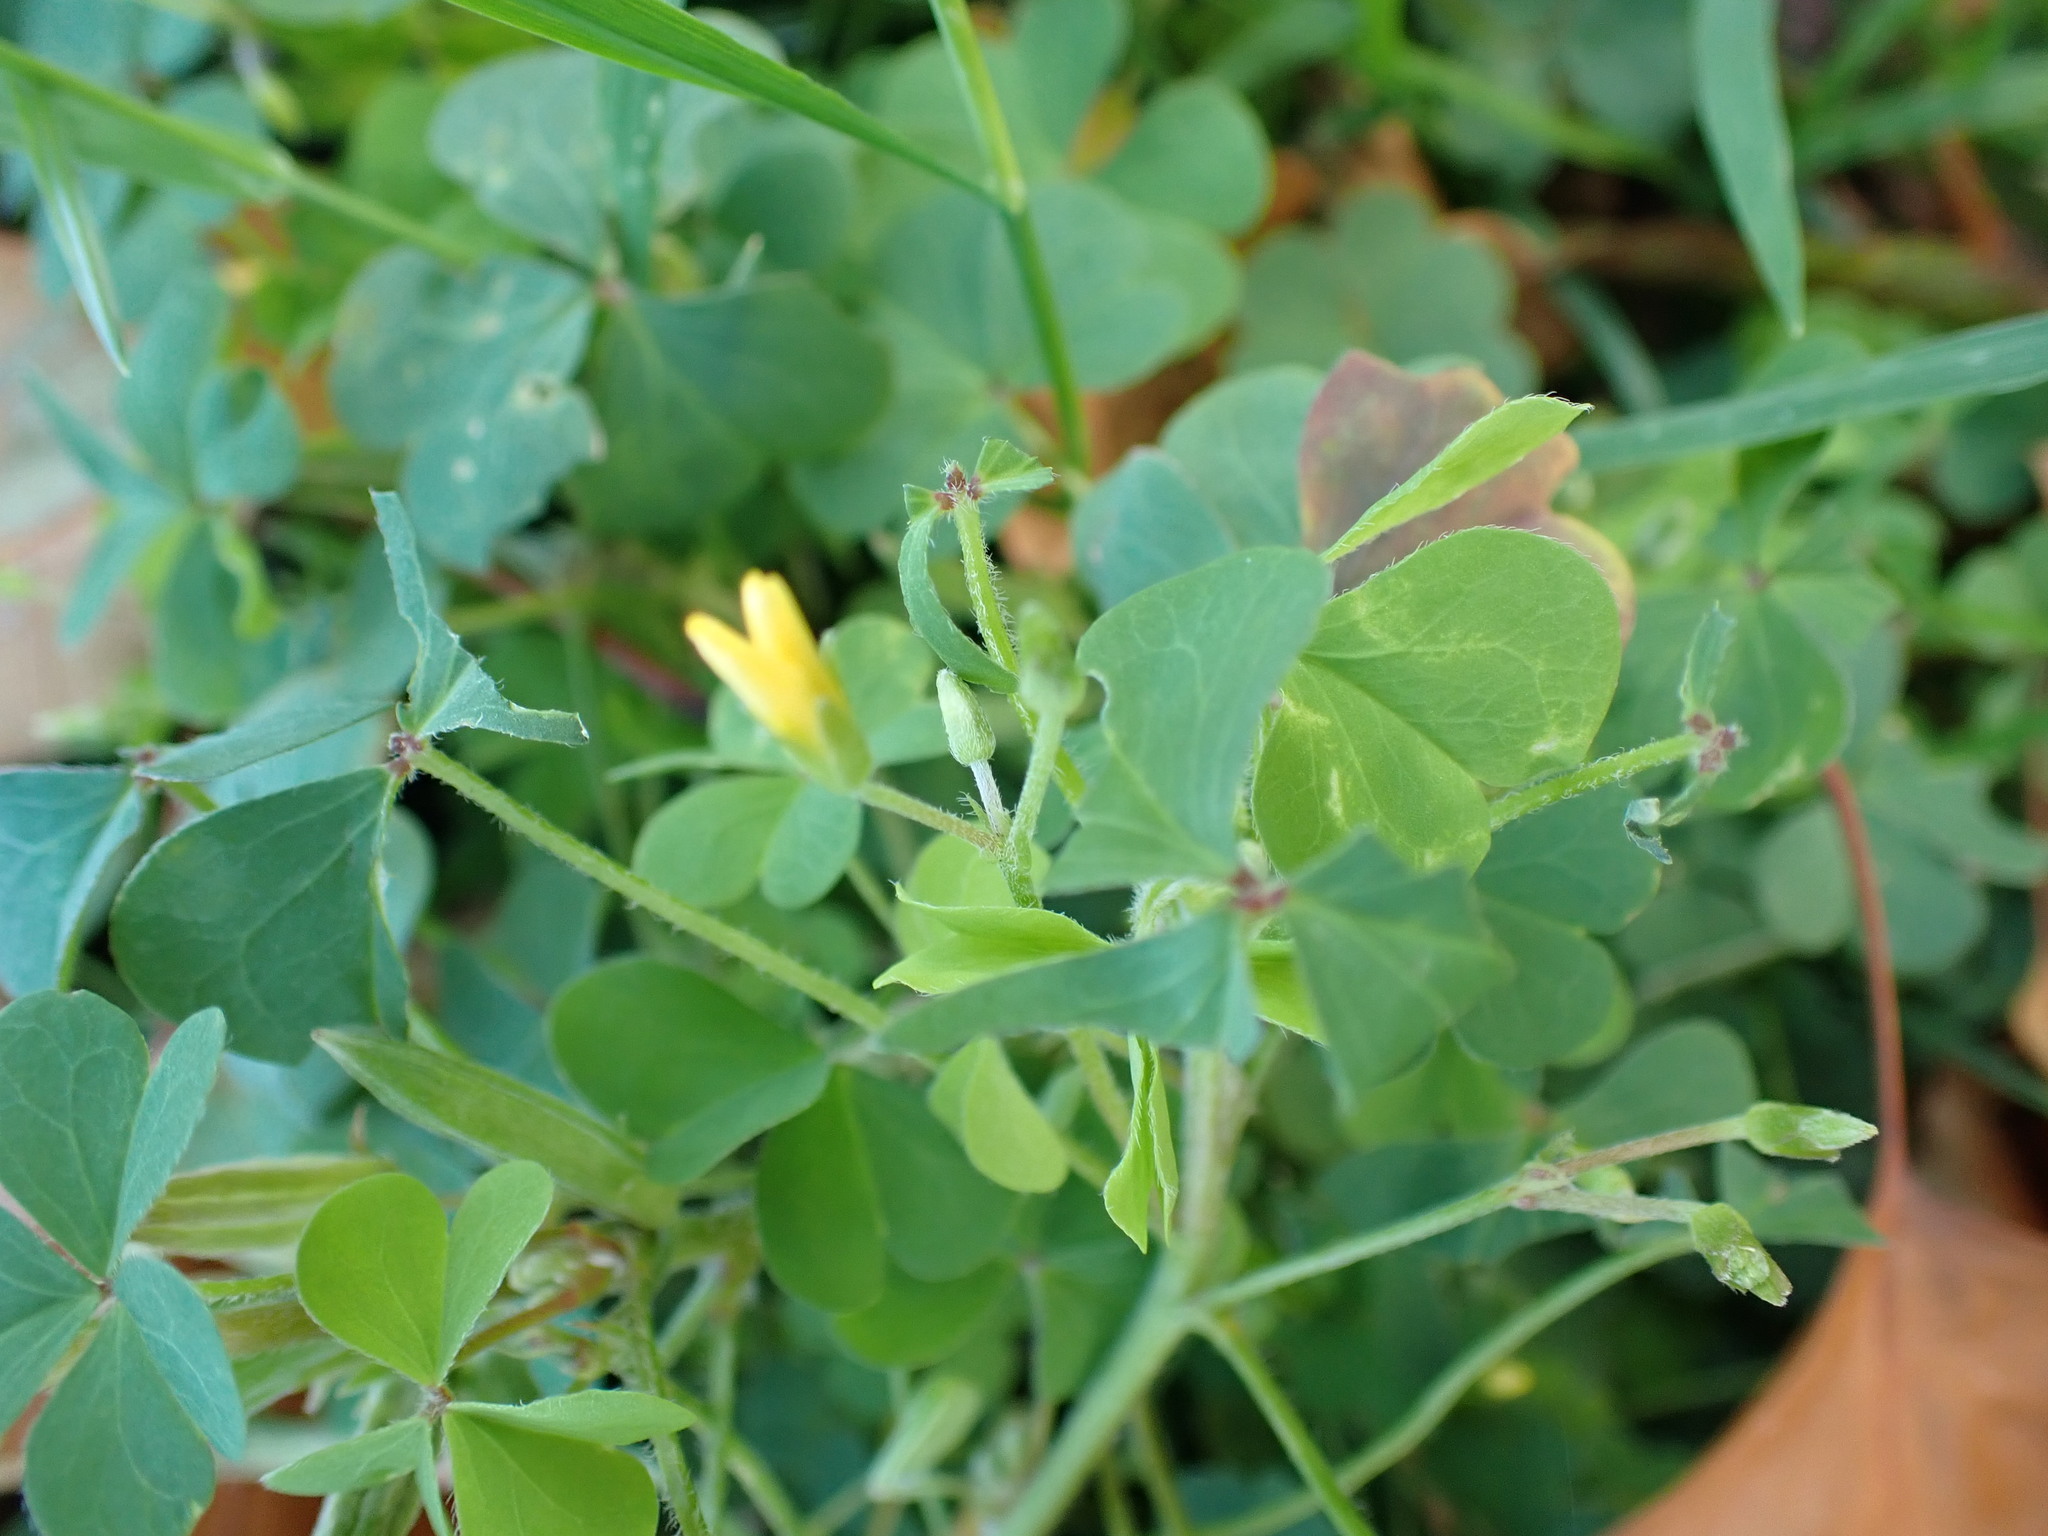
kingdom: Plantae
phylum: Tracheophyta
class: Magnoliopsida
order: Oxalidales
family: Oxalidaceae
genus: Oxalis
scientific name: Oxalis corniculata
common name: Procumbent yellow-sorrel
